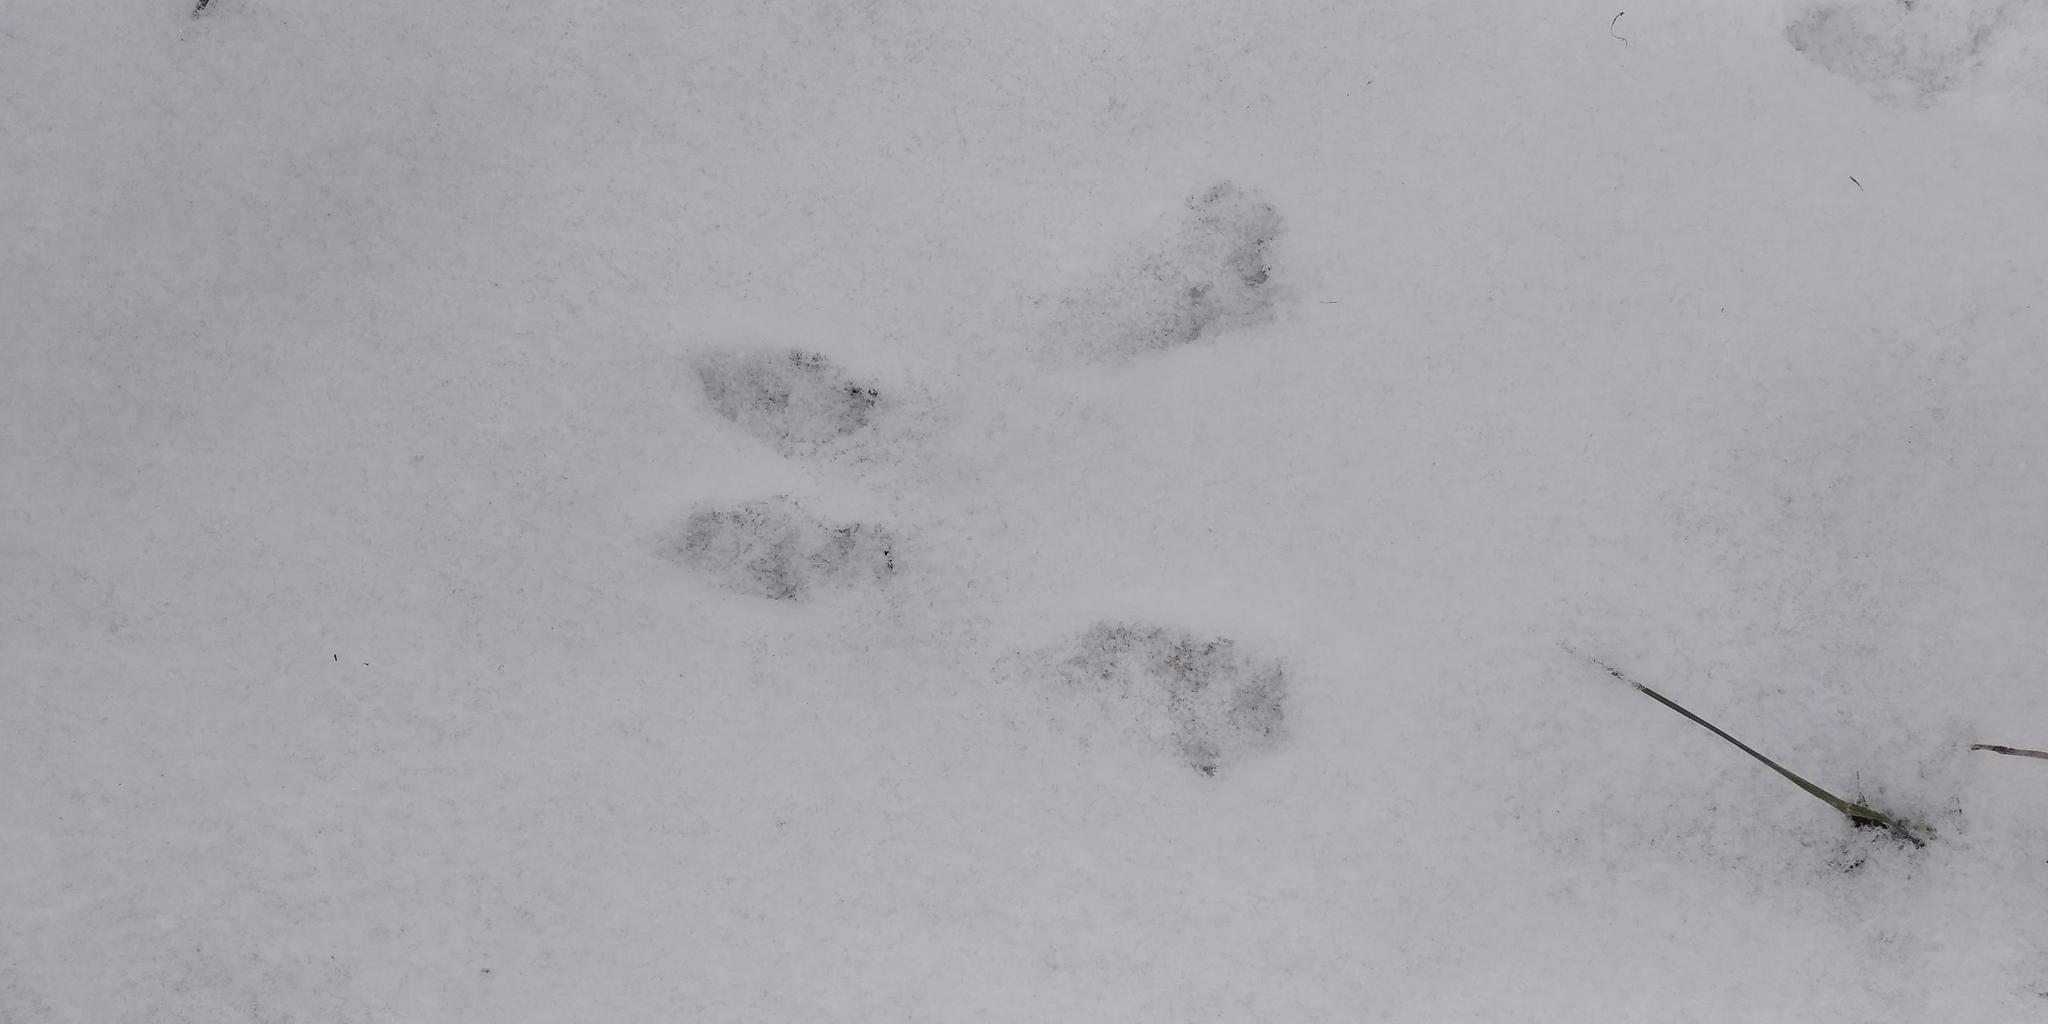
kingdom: Animalia
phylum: Chordata
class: Mammalia
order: Rodentia
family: Sciuridae
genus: Sciurus
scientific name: Sciurus vulgaris
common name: Eurasian red squirrel
